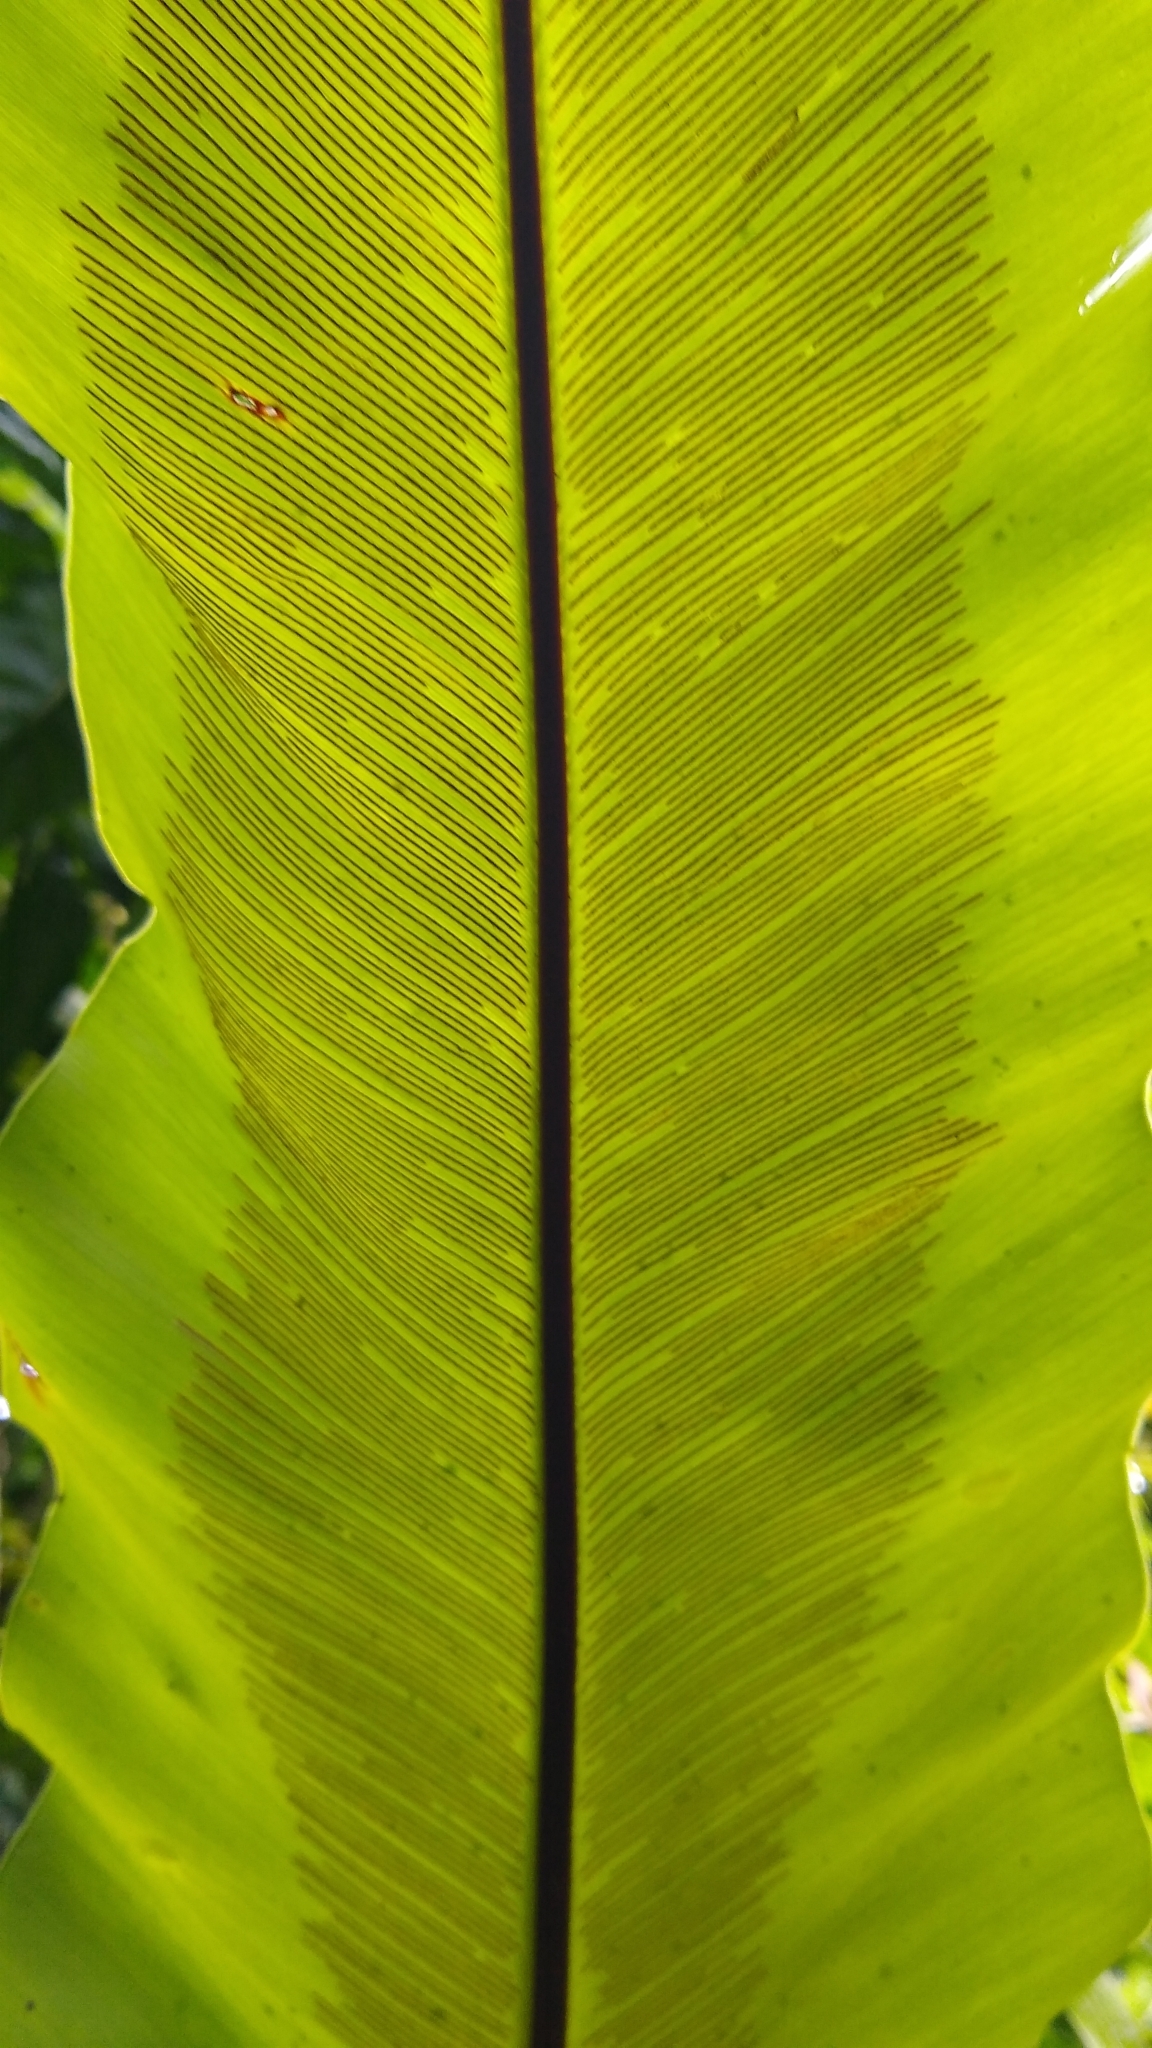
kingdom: Plantae
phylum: Tracheophyta
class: Polypodiopsida
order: Polypodiales
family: Aspleniaceae
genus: Asplenium
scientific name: Asplenium nidus
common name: Bird's-nest fern
